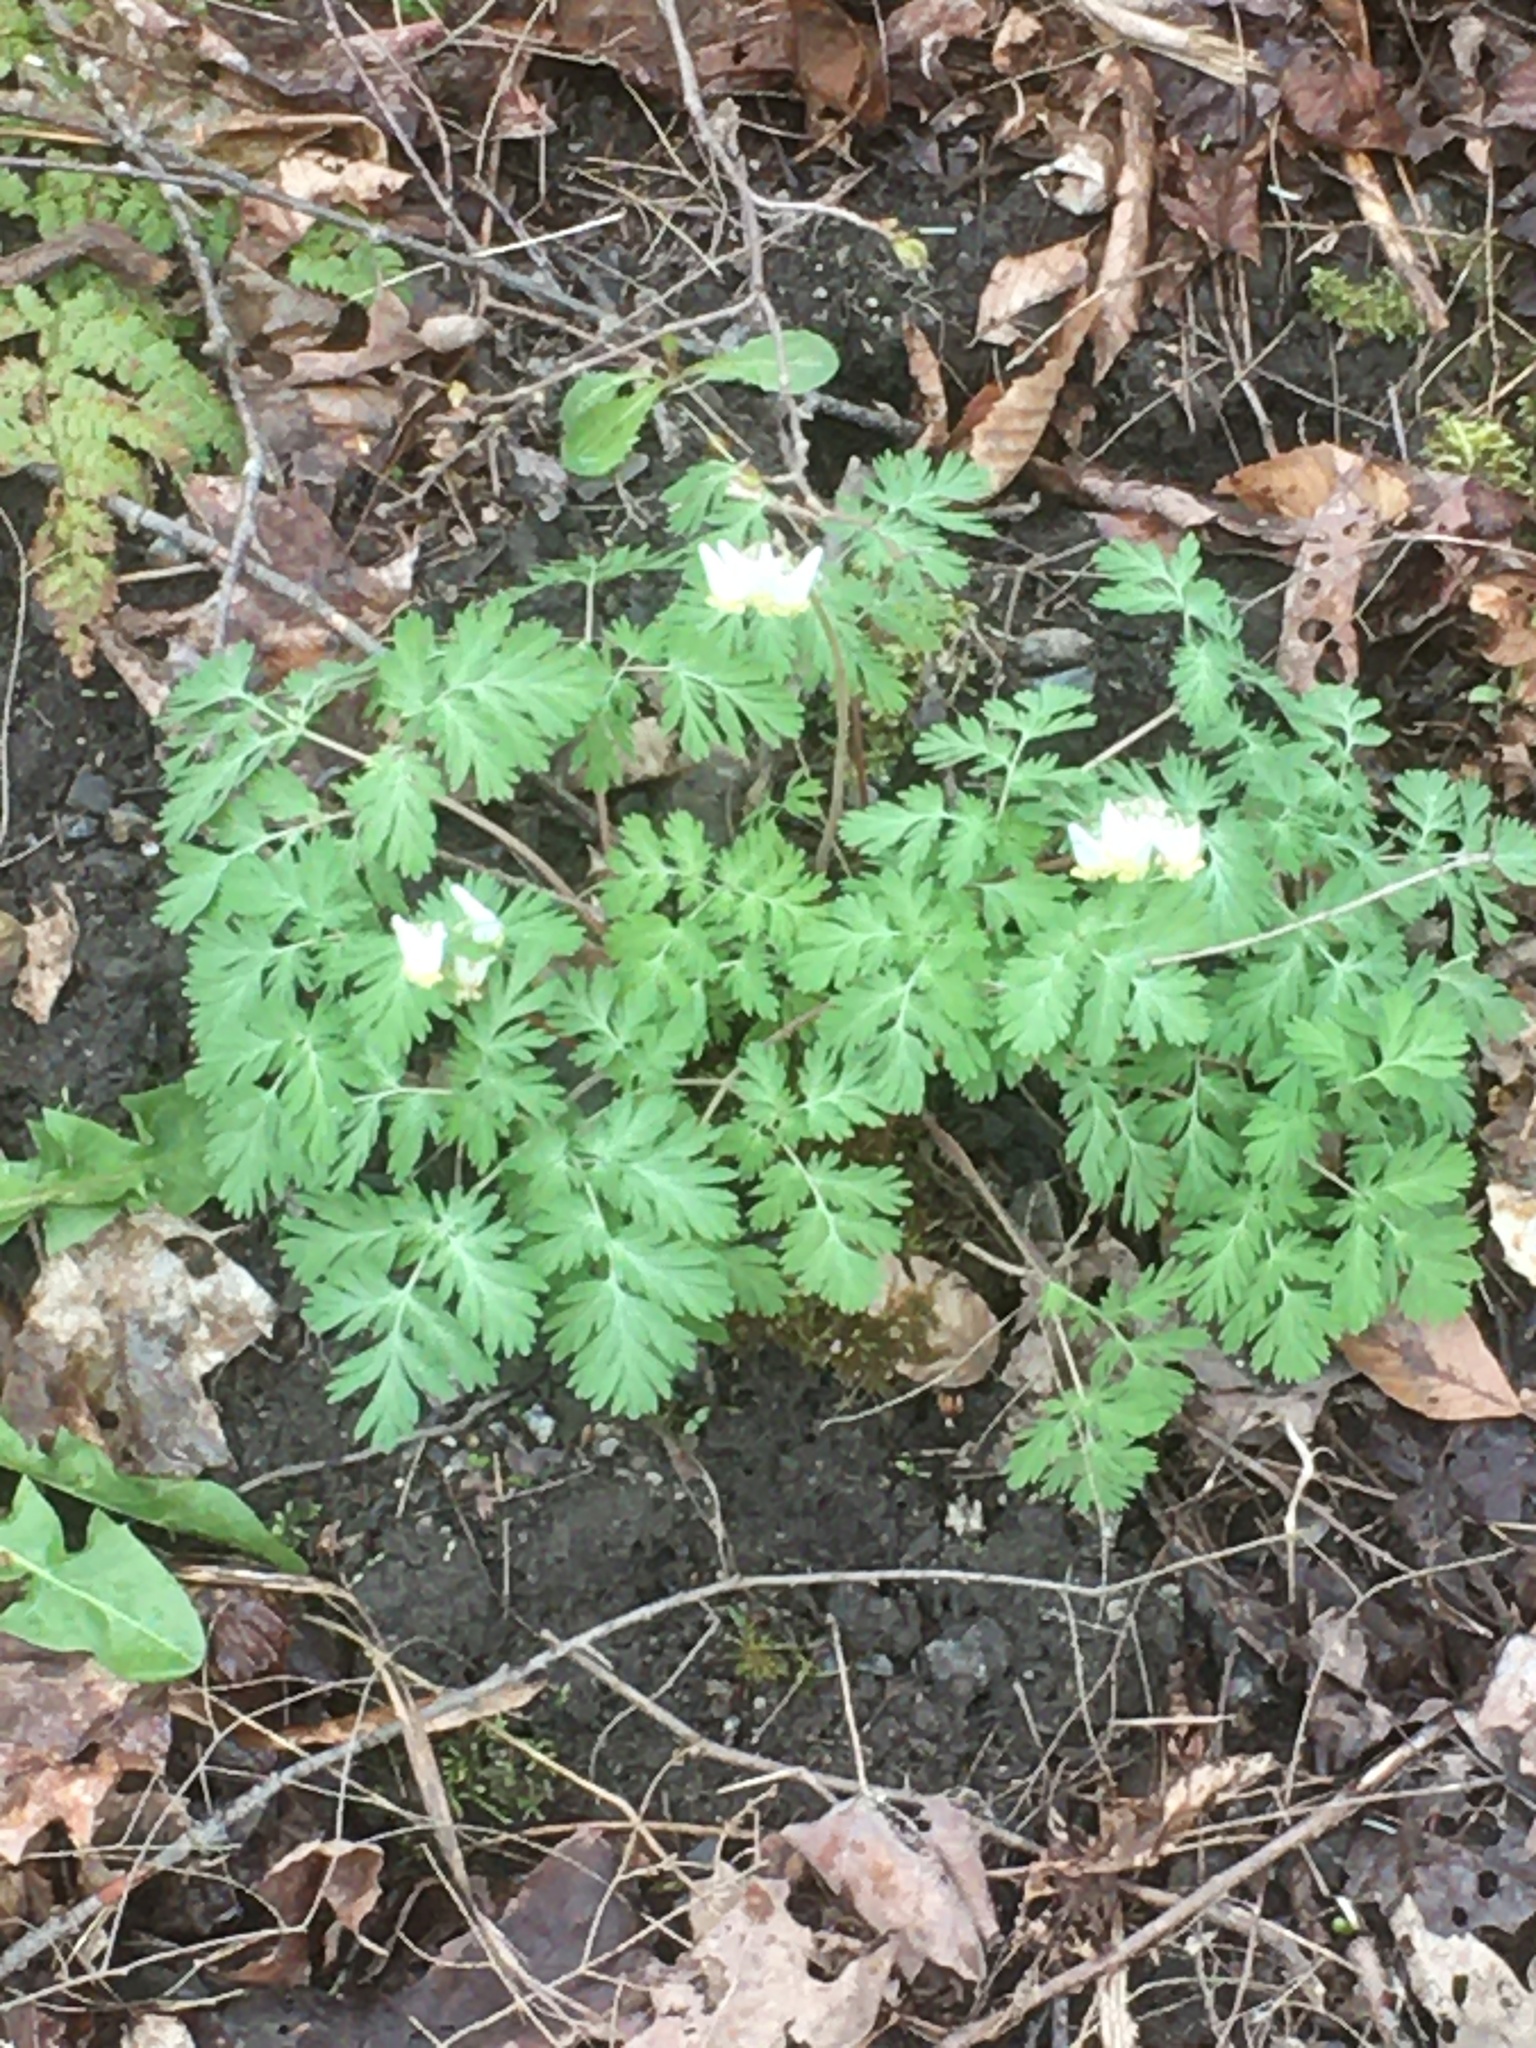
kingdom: Plantae
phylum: Tracheophyta
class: Magnoliopsida
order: Ranunculales
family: Papaveraceae
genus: Dicentra
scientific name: Dicentra cucullaria
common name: Dutchman's breeches
